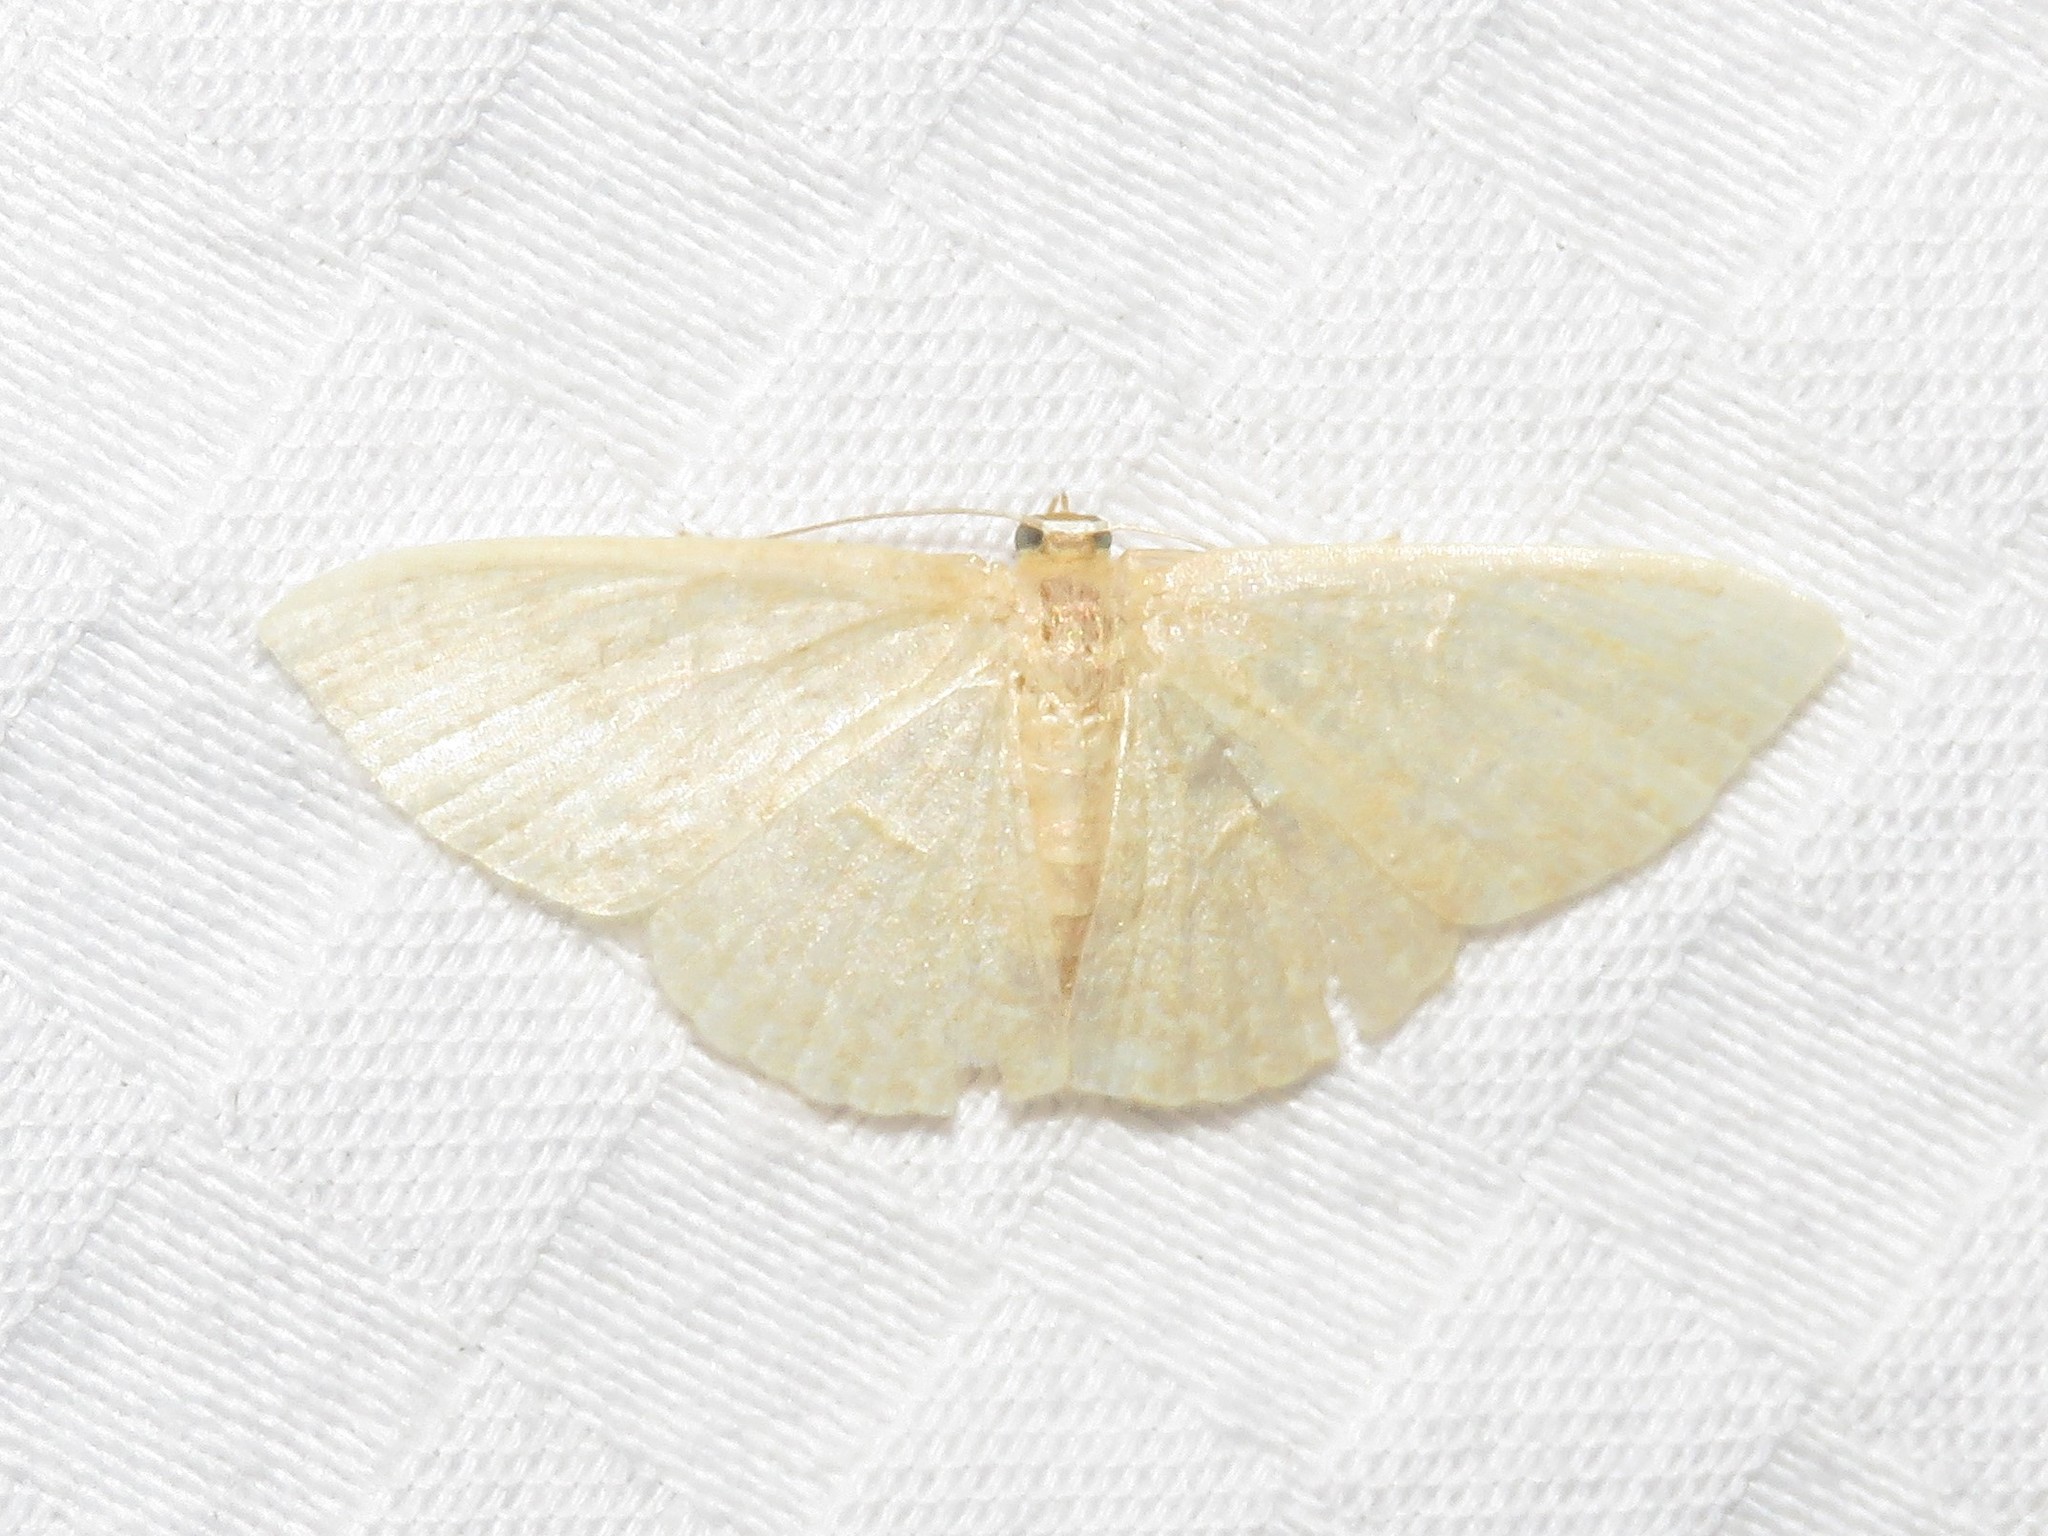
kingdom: Animalia
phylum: Arthropoda
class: Insecta
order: Lepidoptera
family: Geometridae
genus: Pleuroprucha
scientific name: Pleuroprucha insulsaria
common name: Common tan wave
